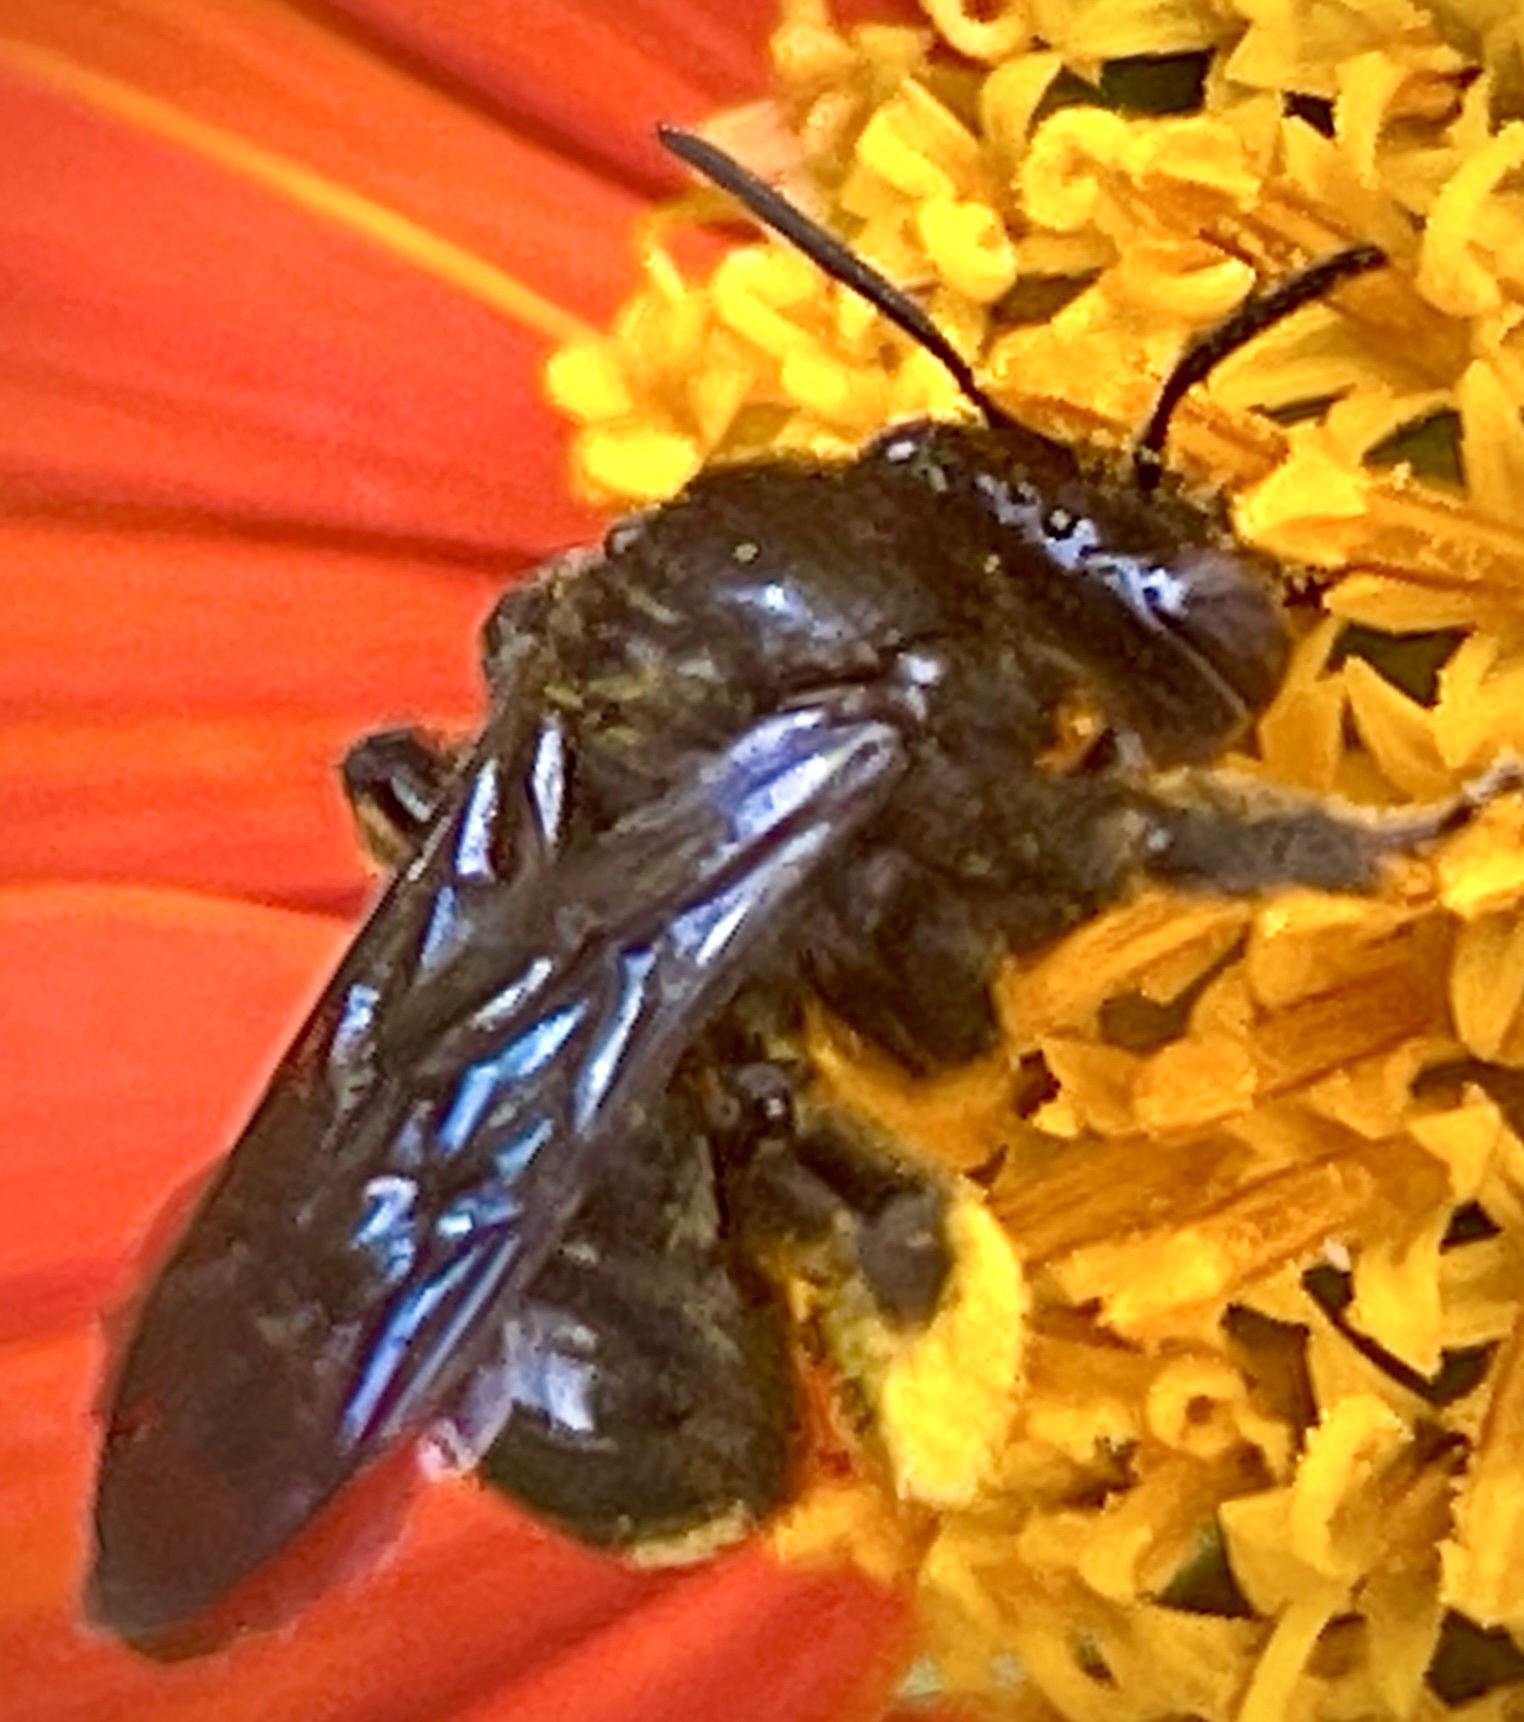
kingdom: Animalia
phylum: Arthropoda
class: Insecta
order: Hymenoptera
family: Apidae
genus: Melissodes
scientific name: Melissodes bimaculatus
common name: Two-spotted long-horned bee
